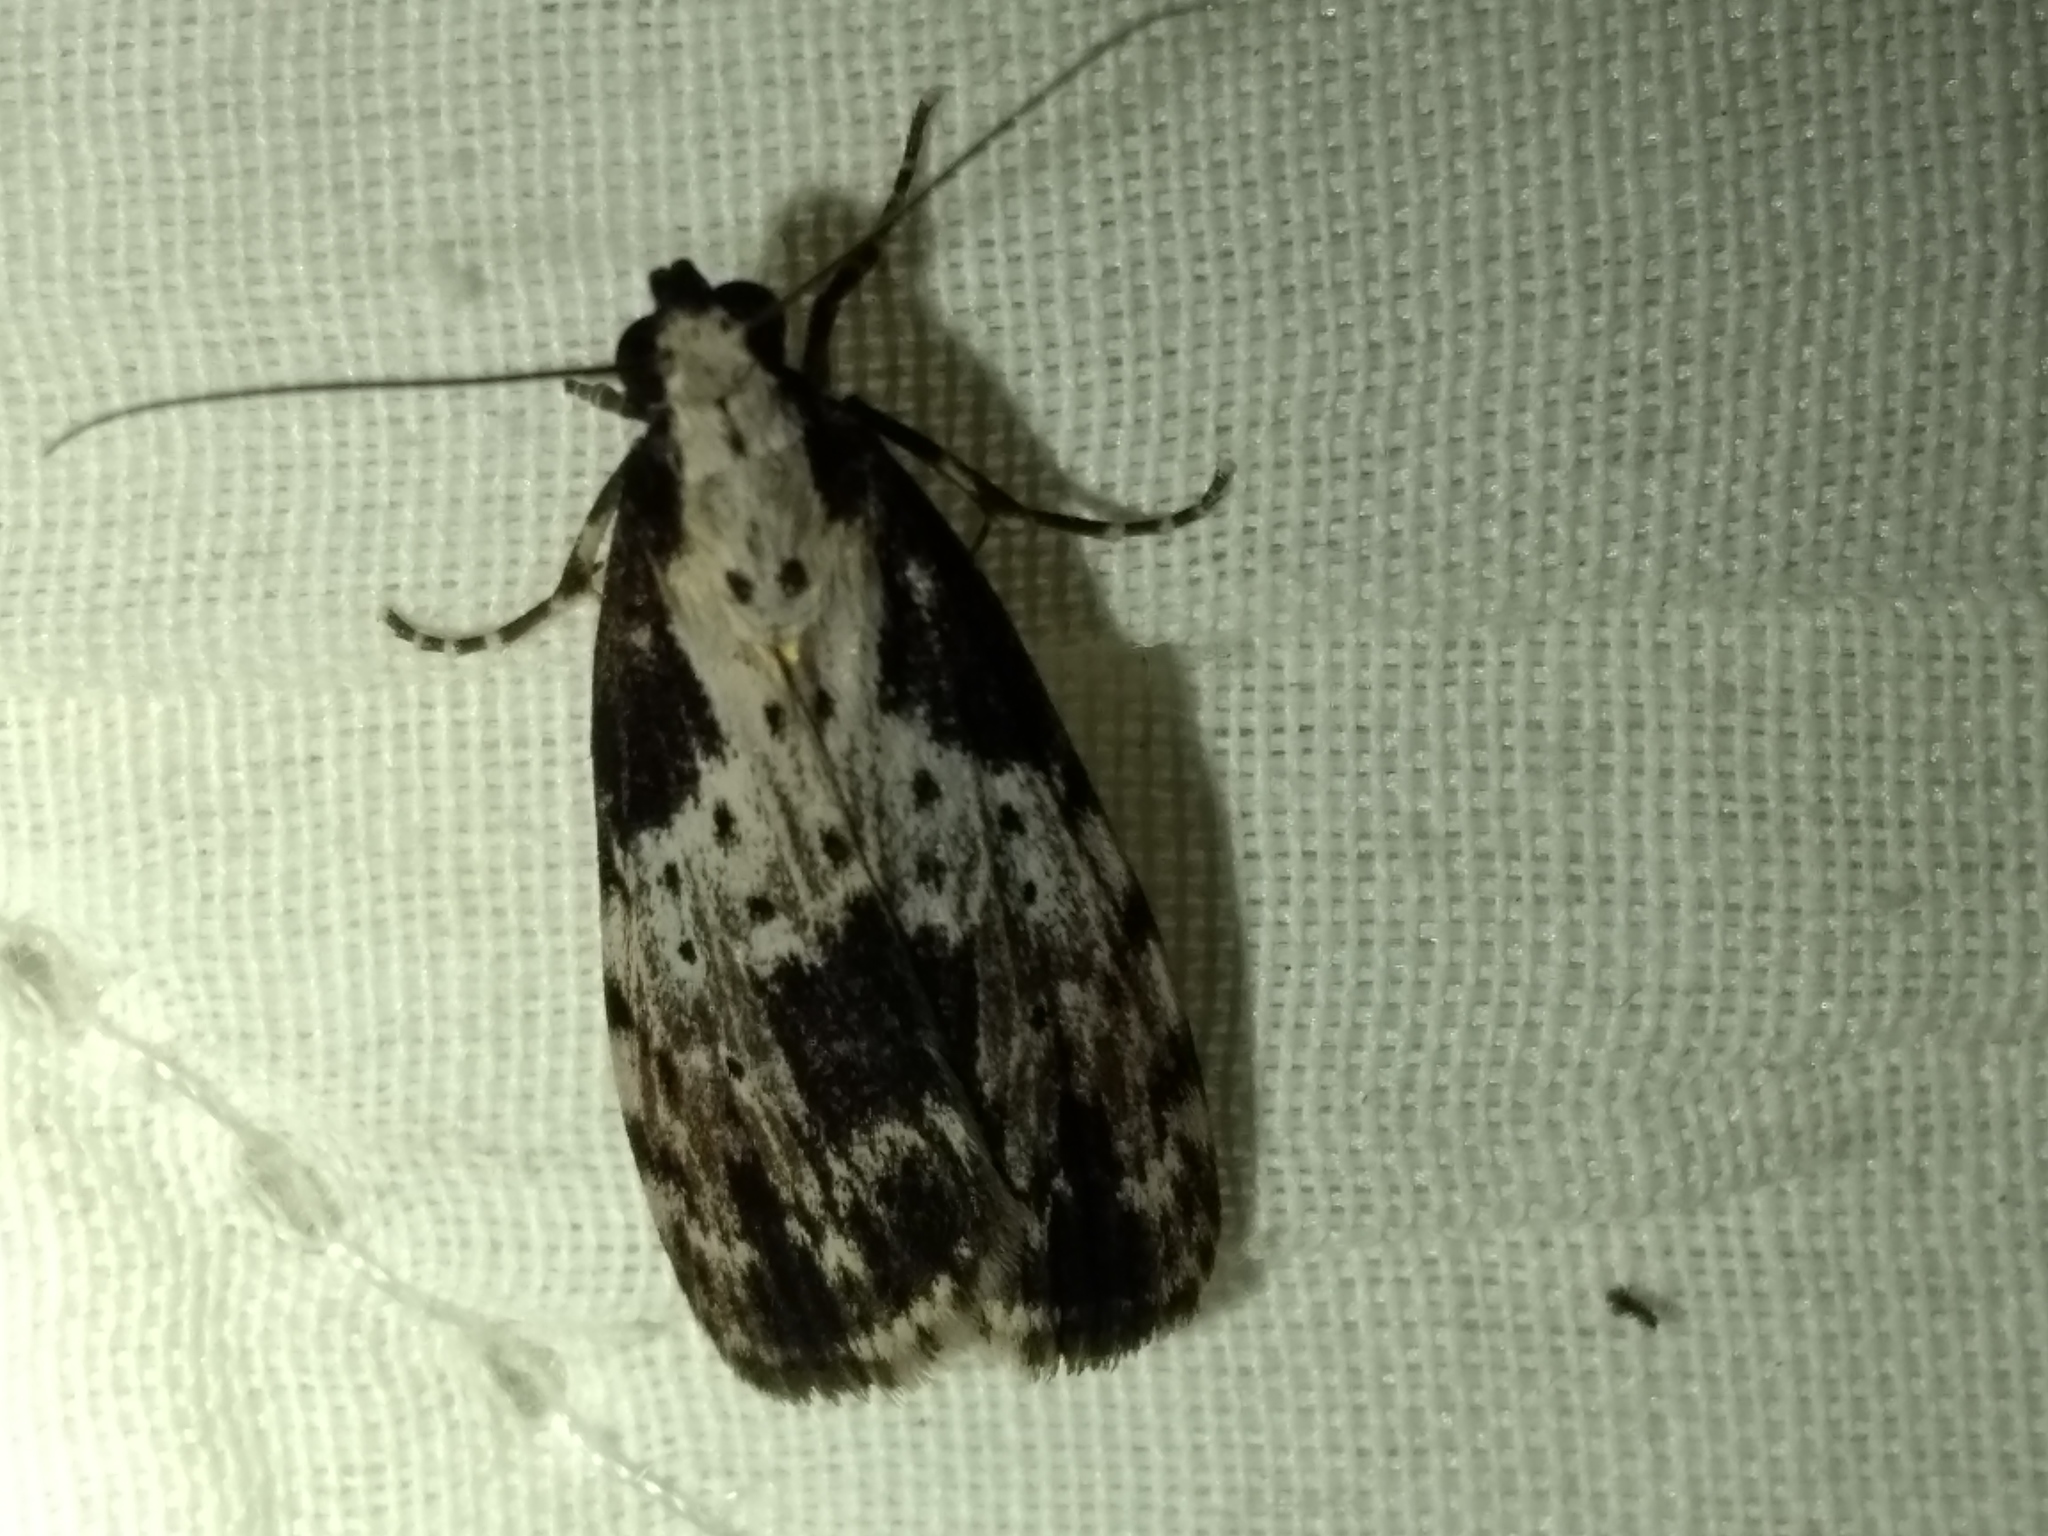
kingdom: Animalia
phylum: Arthropoda
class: Insecta
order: Lepidoptera
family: Erebidae
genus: Digama
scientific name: Digama Sommeria marmorea
